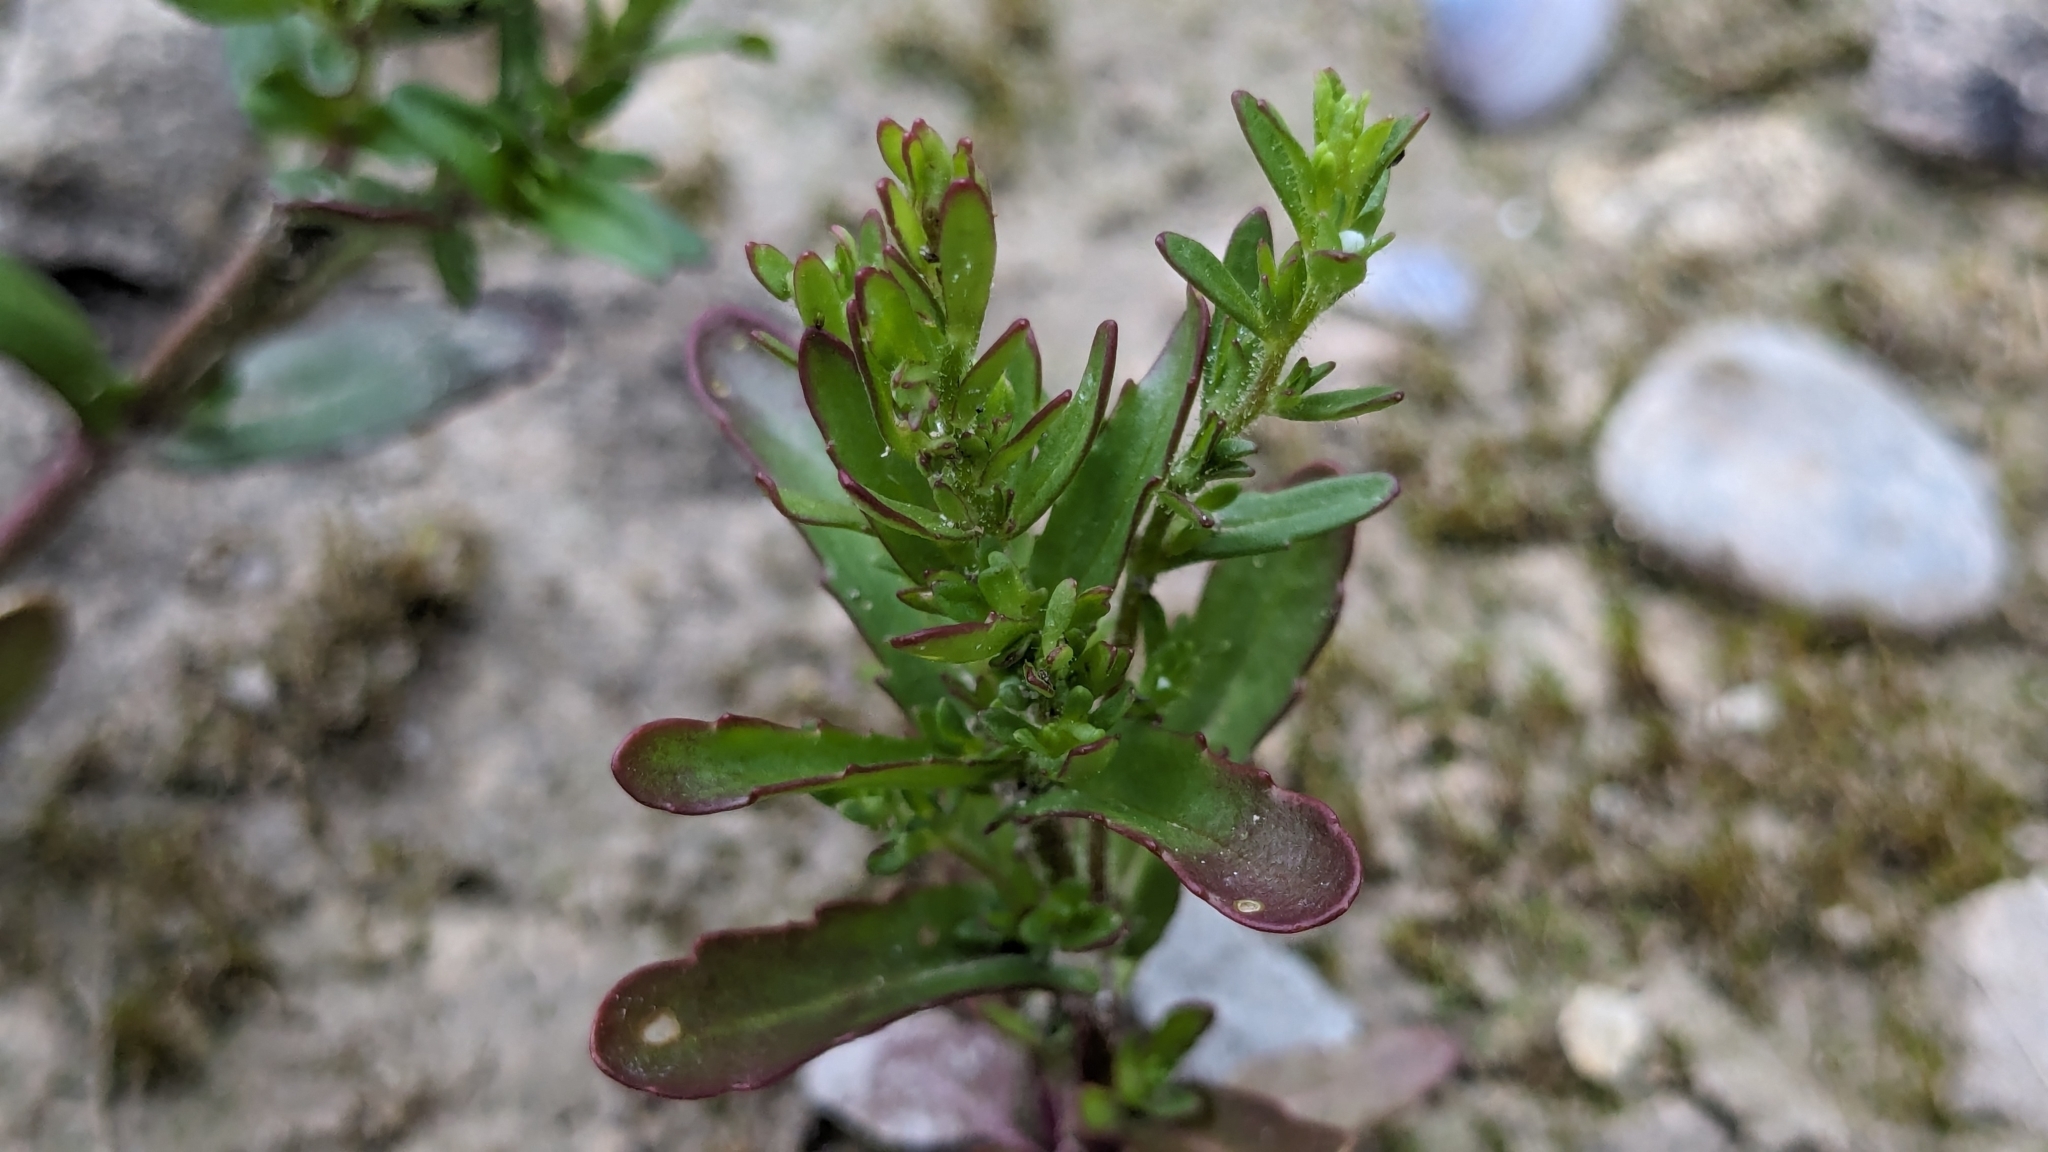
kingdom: Plantae
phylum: Tracheophyta
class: Magnoliopsida
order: Lamiales
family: Plantaginaceae
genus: Veronica
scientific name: Veronica peregrina
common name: Neckweed
